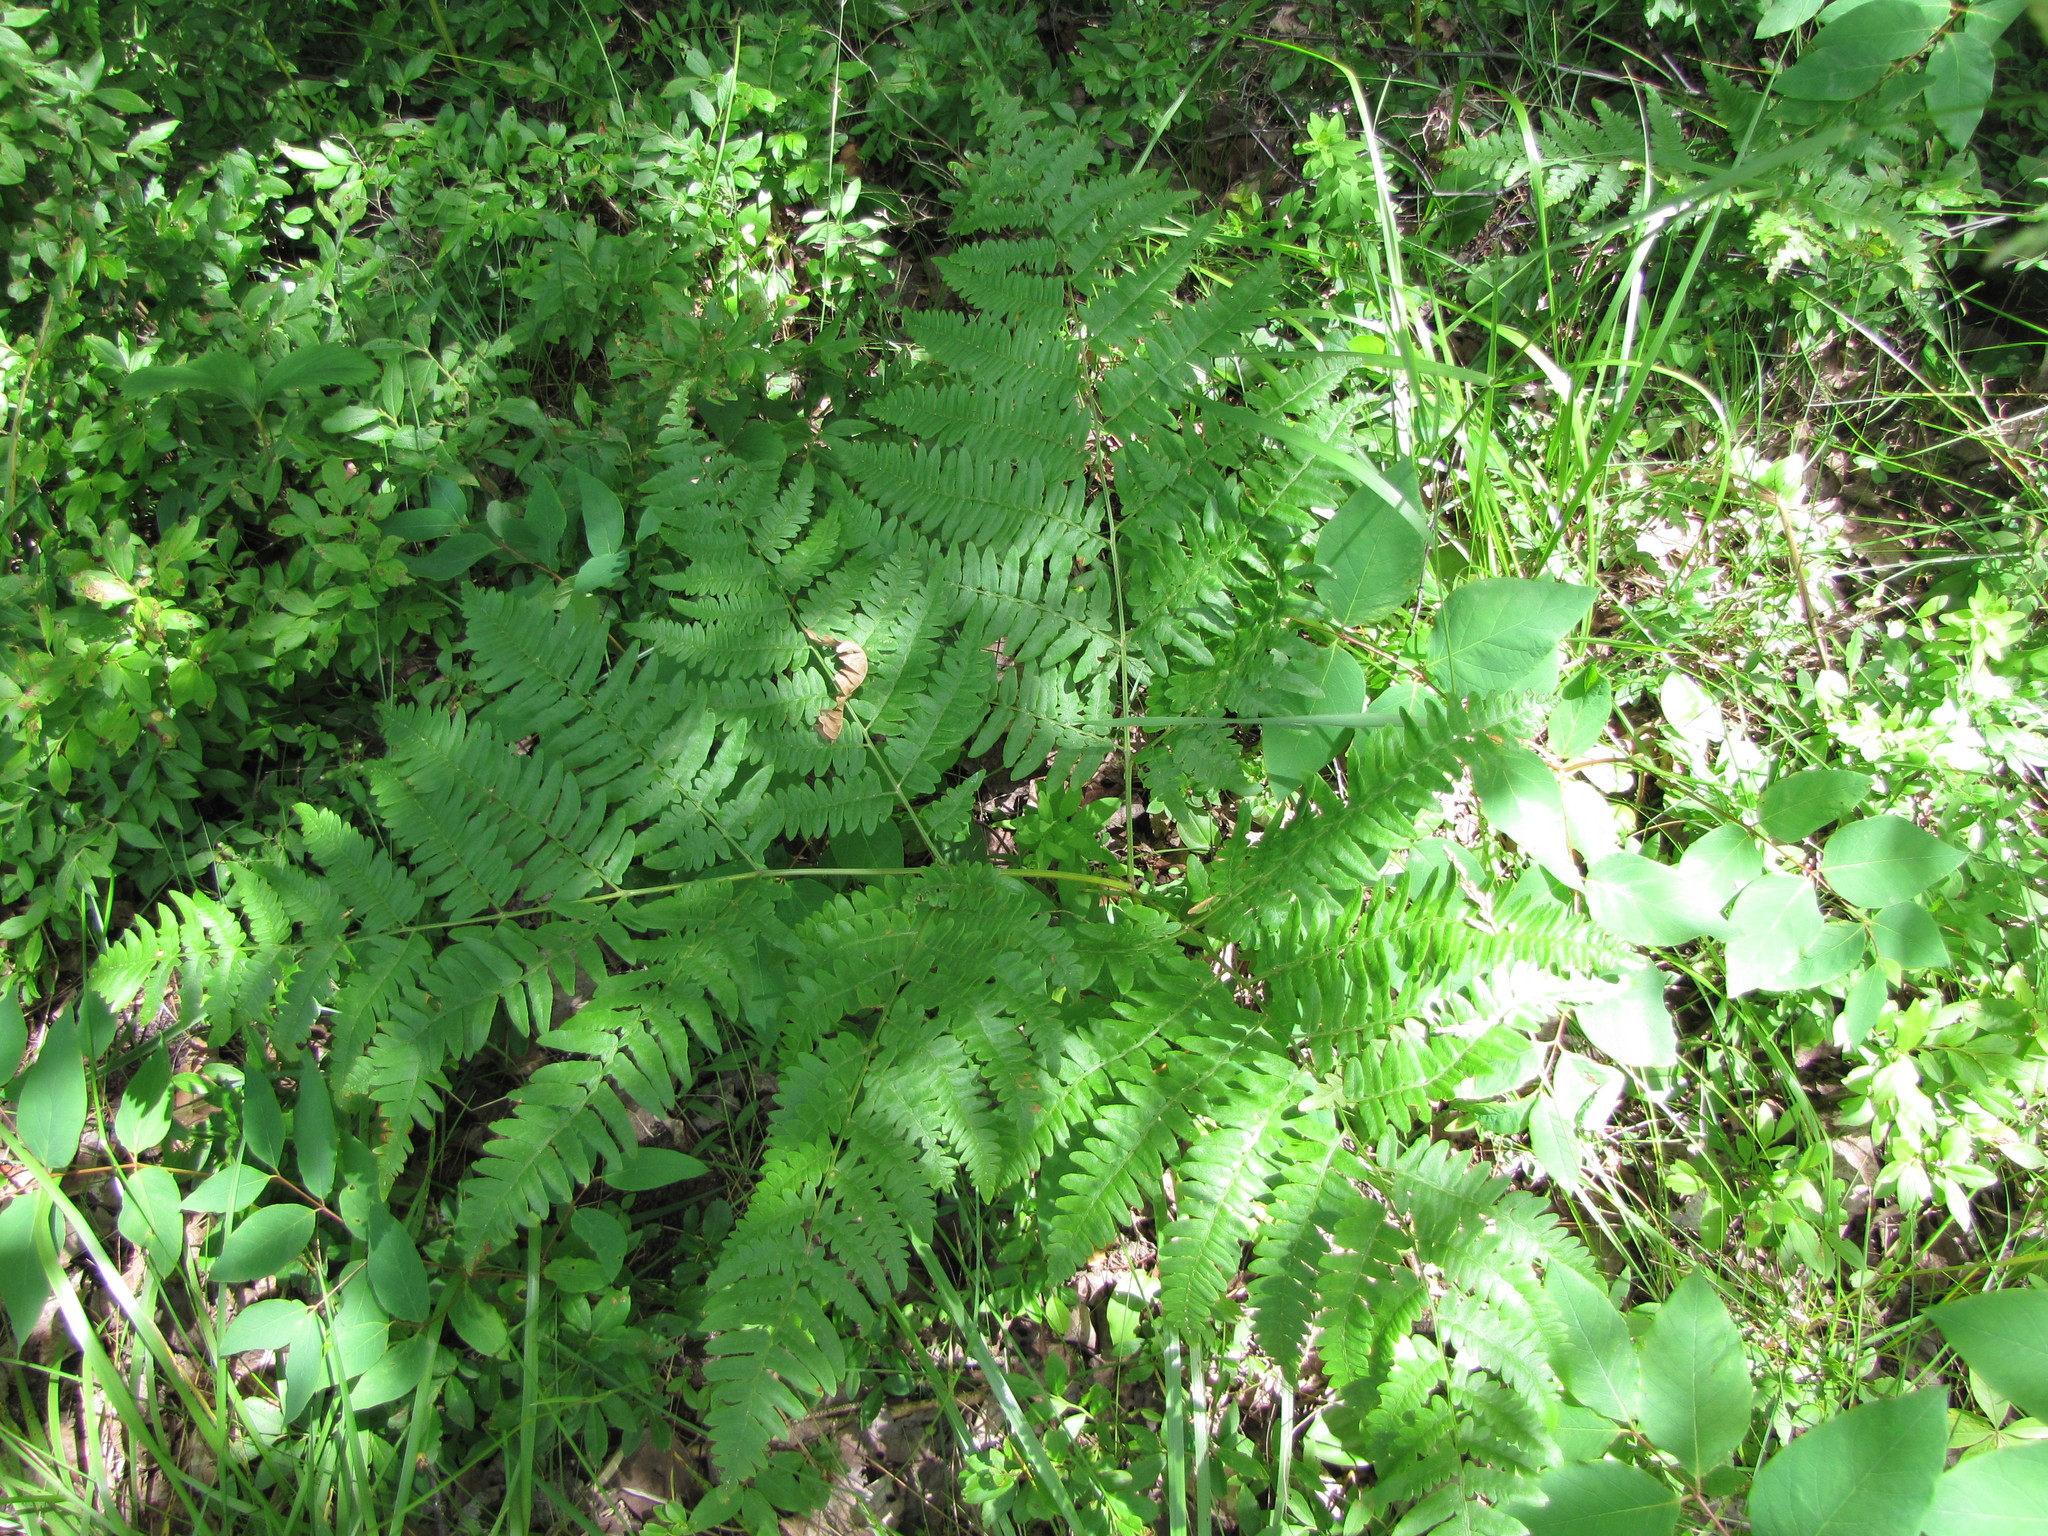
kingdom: Plantae
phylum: Tracheophyta
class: Polypodiopsida
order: Polypodiales
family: Dennstaedtiaceae
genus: Pteridium
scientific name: Pteridium aquilinum
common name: Bracken
